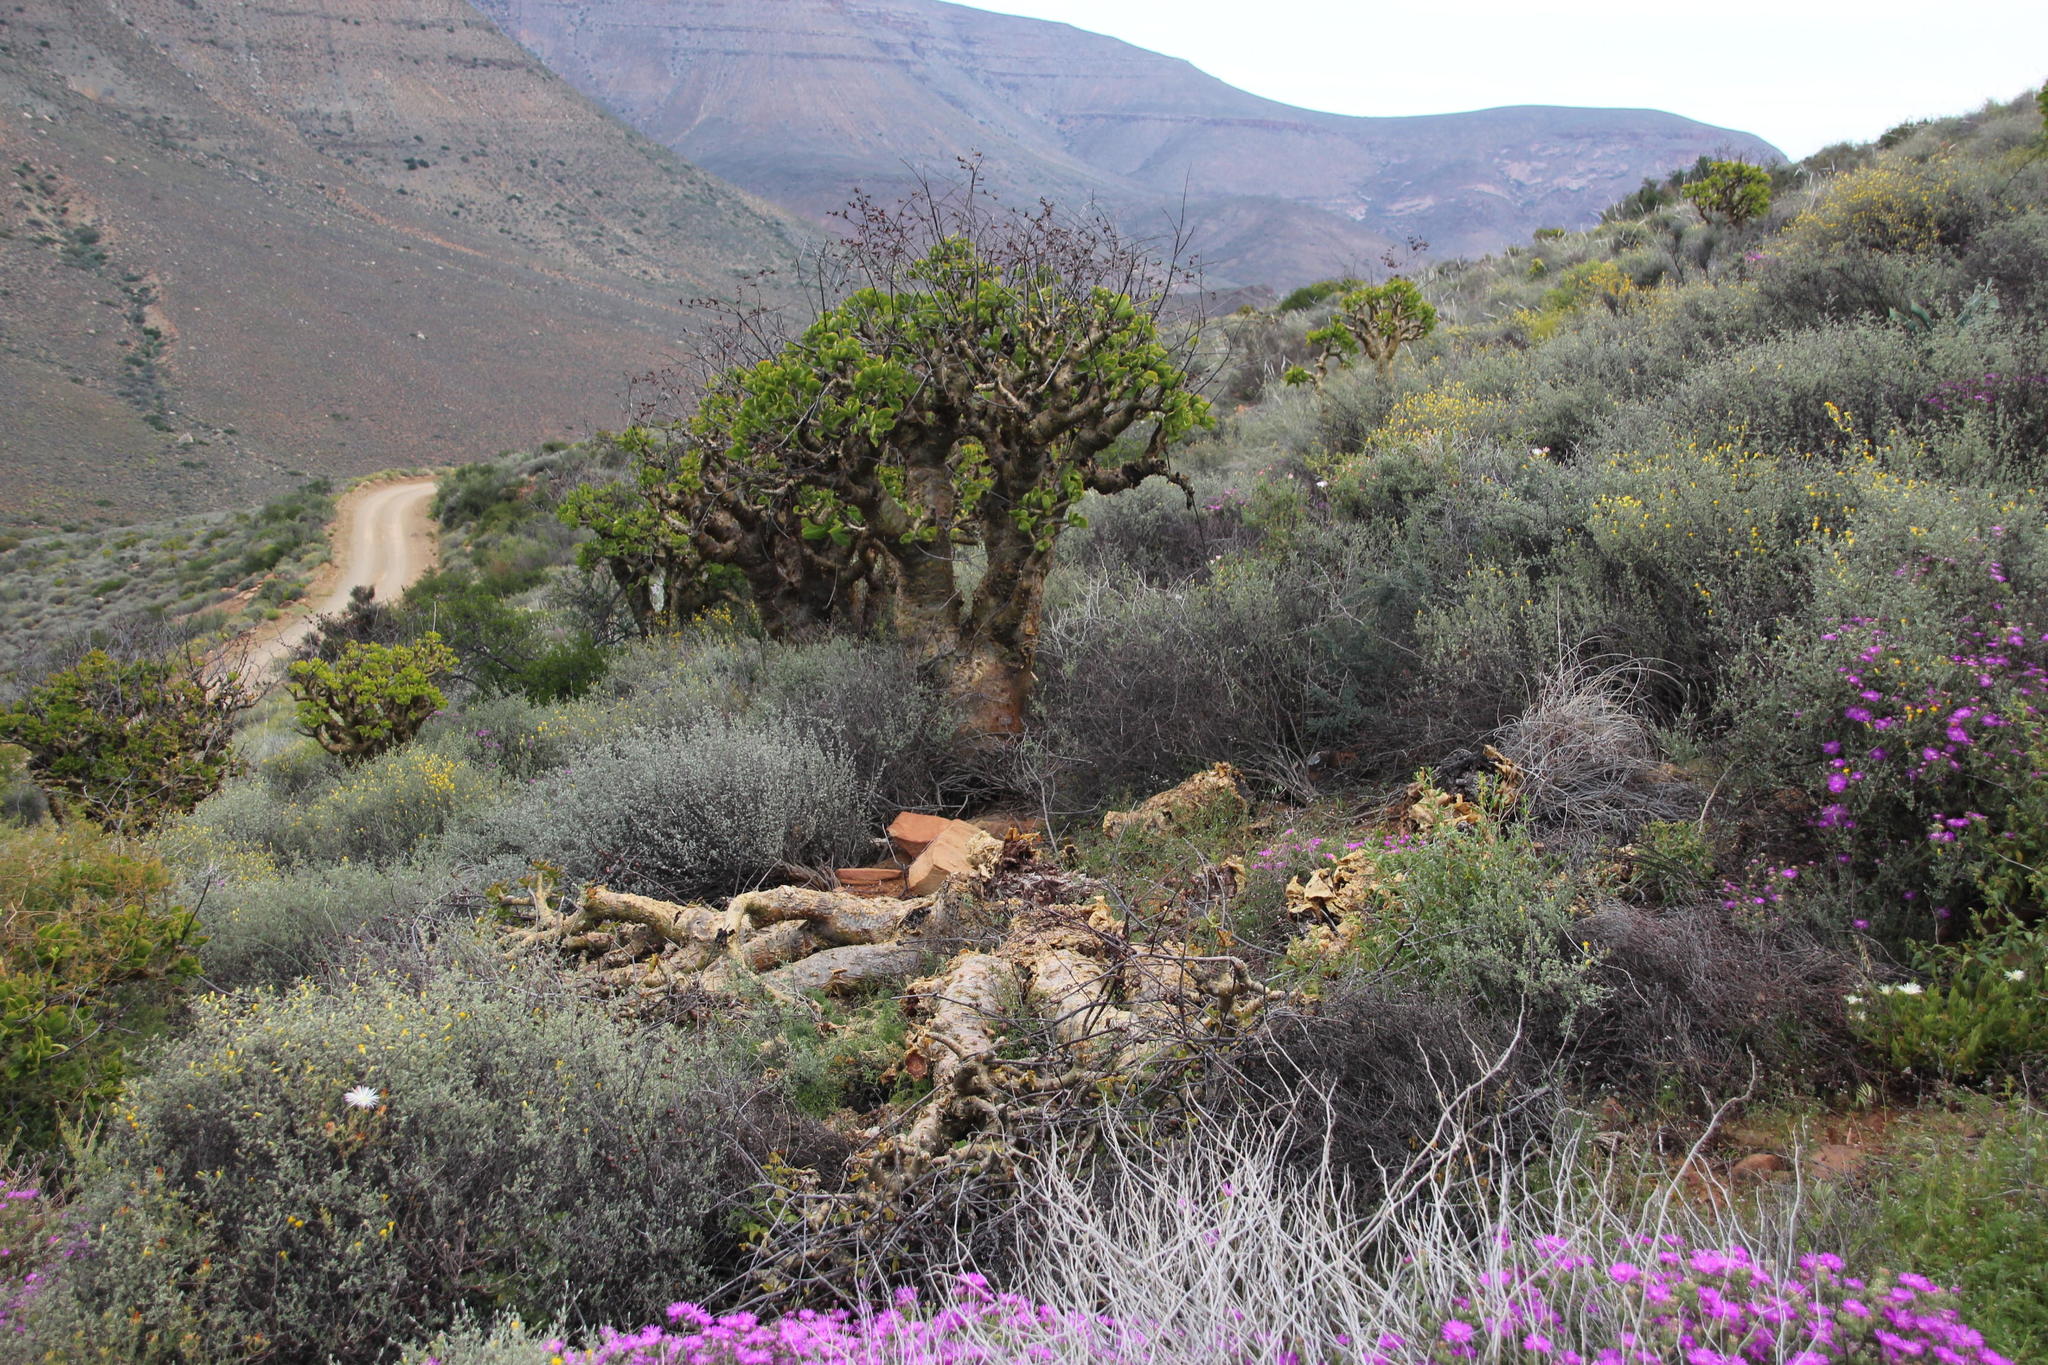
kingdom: Plantae
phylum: Tracheophyta
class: Magnoliopsida
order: Saxifragales
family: Crassulaceae
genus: Tylecodon
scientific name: Tylecodon paniculatus
